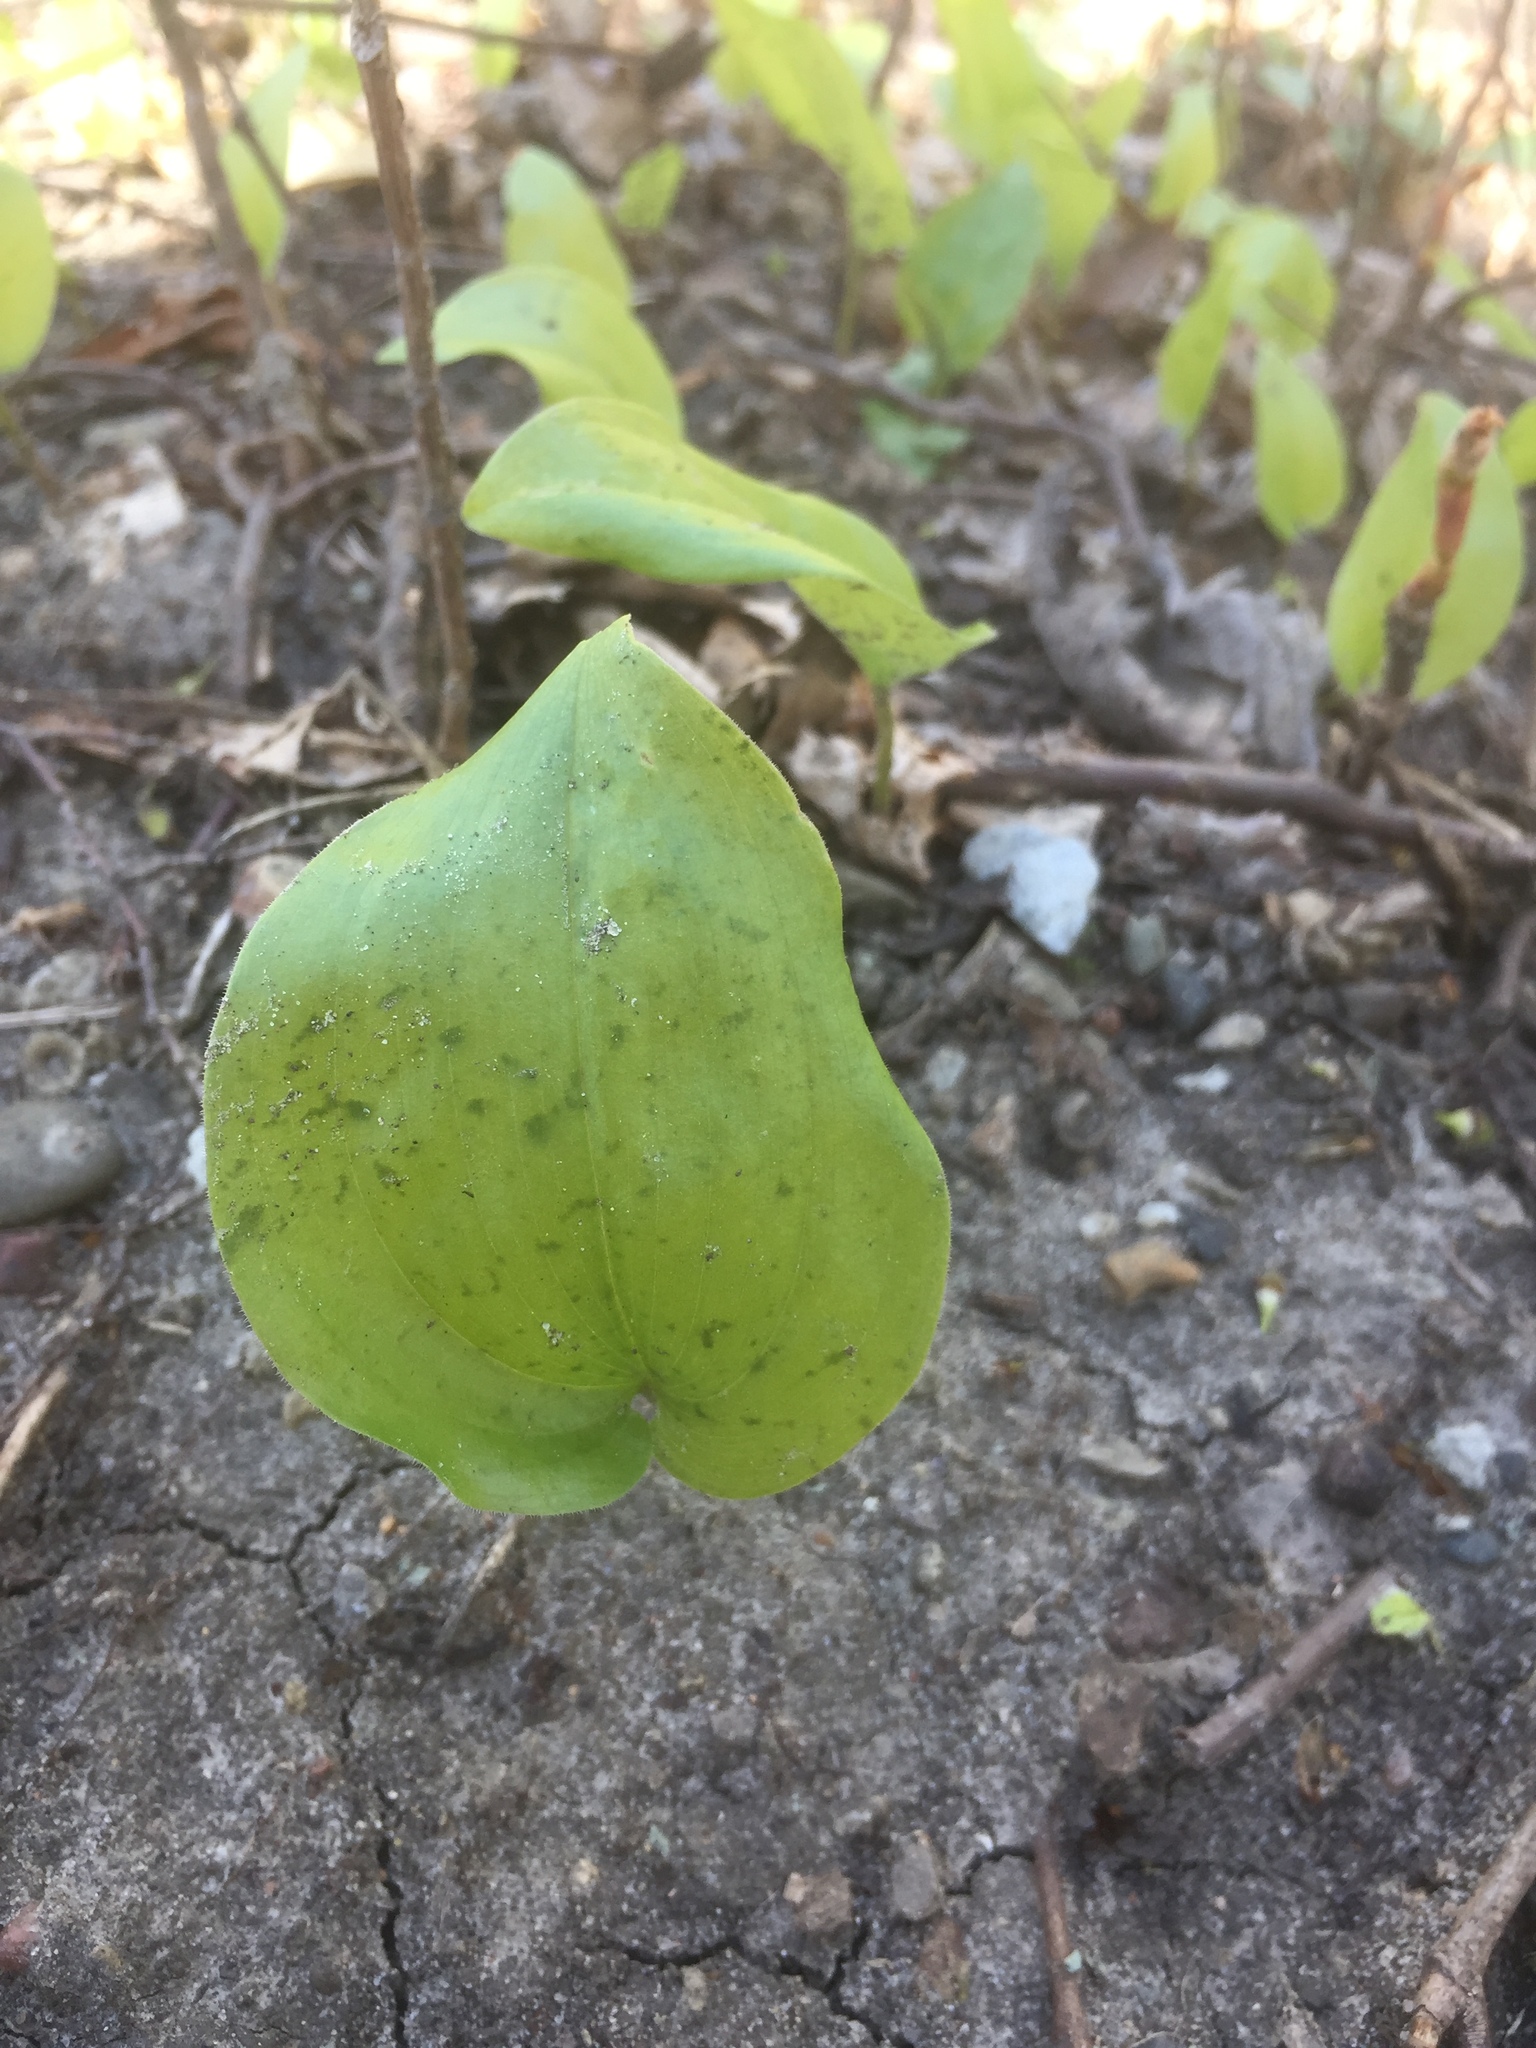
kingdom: Plantae
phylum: Tracheophyta
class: Liliopsida
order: Asparagales
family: Asparagaceae
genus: Maianthemum
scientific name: Maianthemum canadense
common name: False lily-of-the-valley
